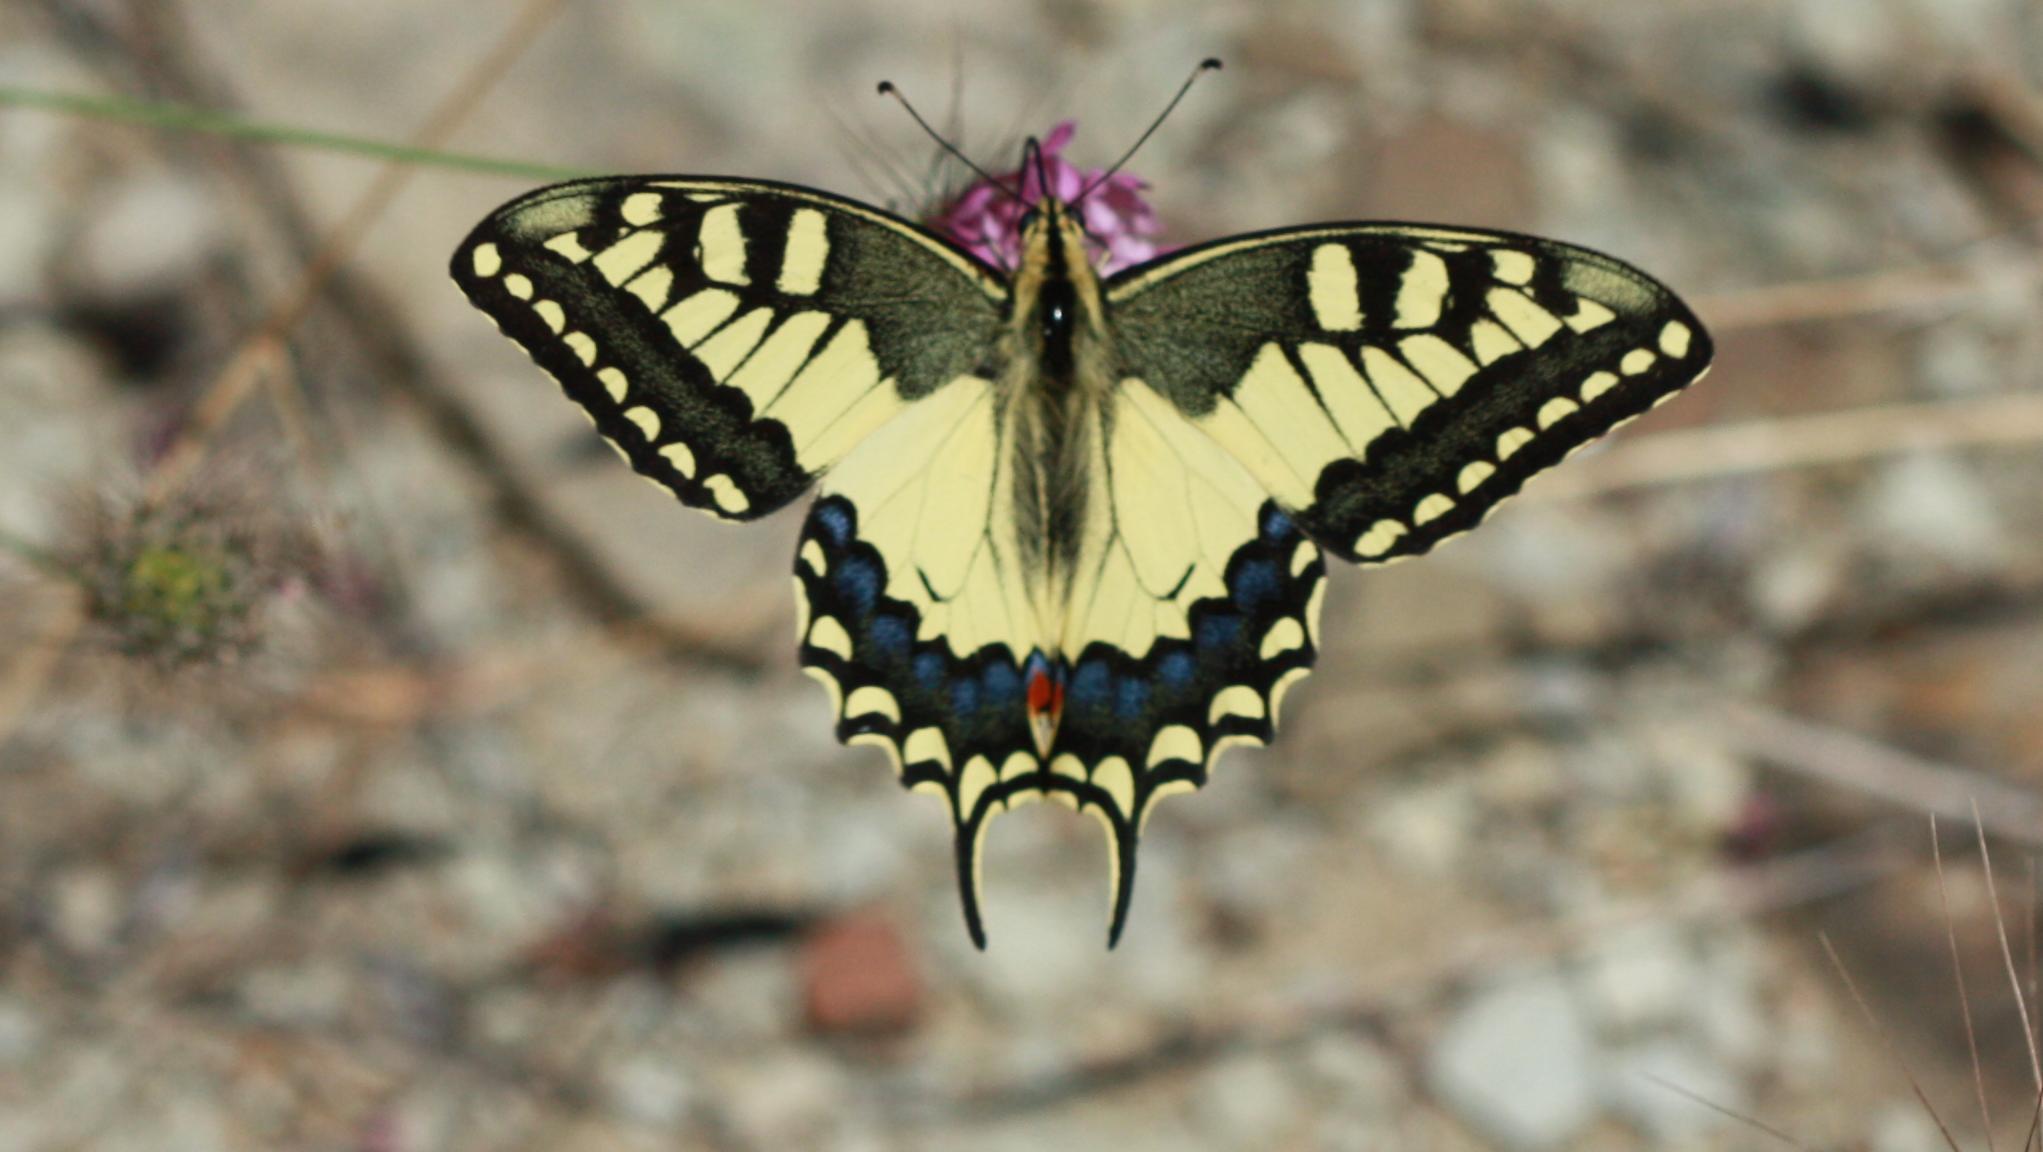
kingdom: Animalia
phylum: Arthropoda
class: Insecta
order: Lepidoptera
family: Papilionidae
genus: Papilio
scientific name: Papilio machaon
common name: Swallowtail
